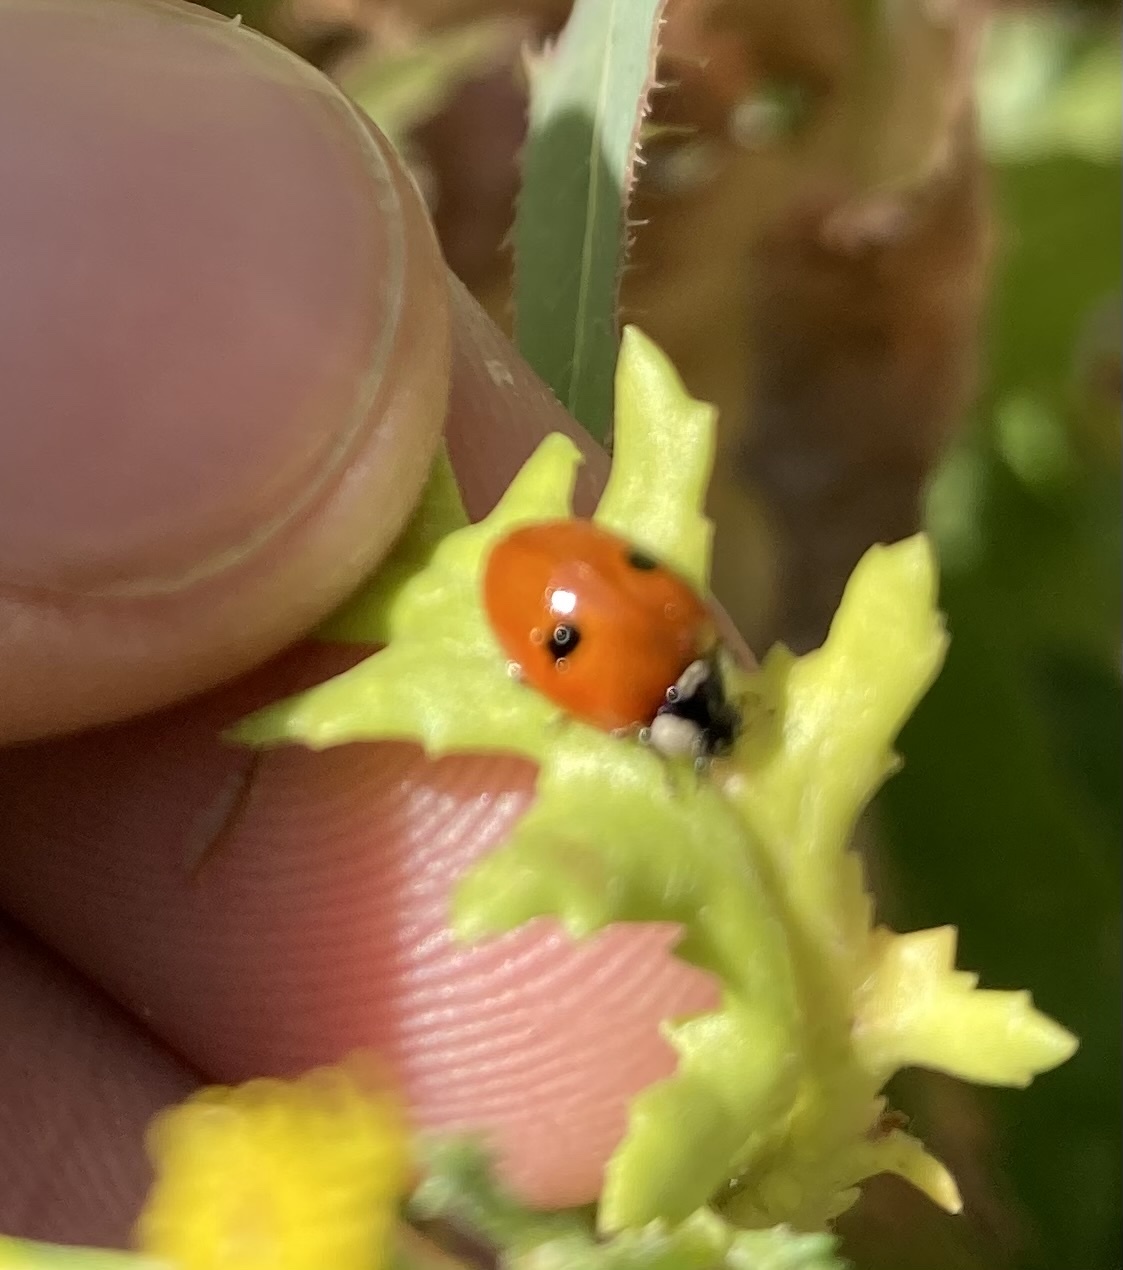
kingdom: Animalia
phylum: Arthropoda
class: Insecta
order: Coleoptera
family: Coccinellidae
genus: Adalia
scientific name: Adalia bipunctata
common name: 2-spot ladybird
